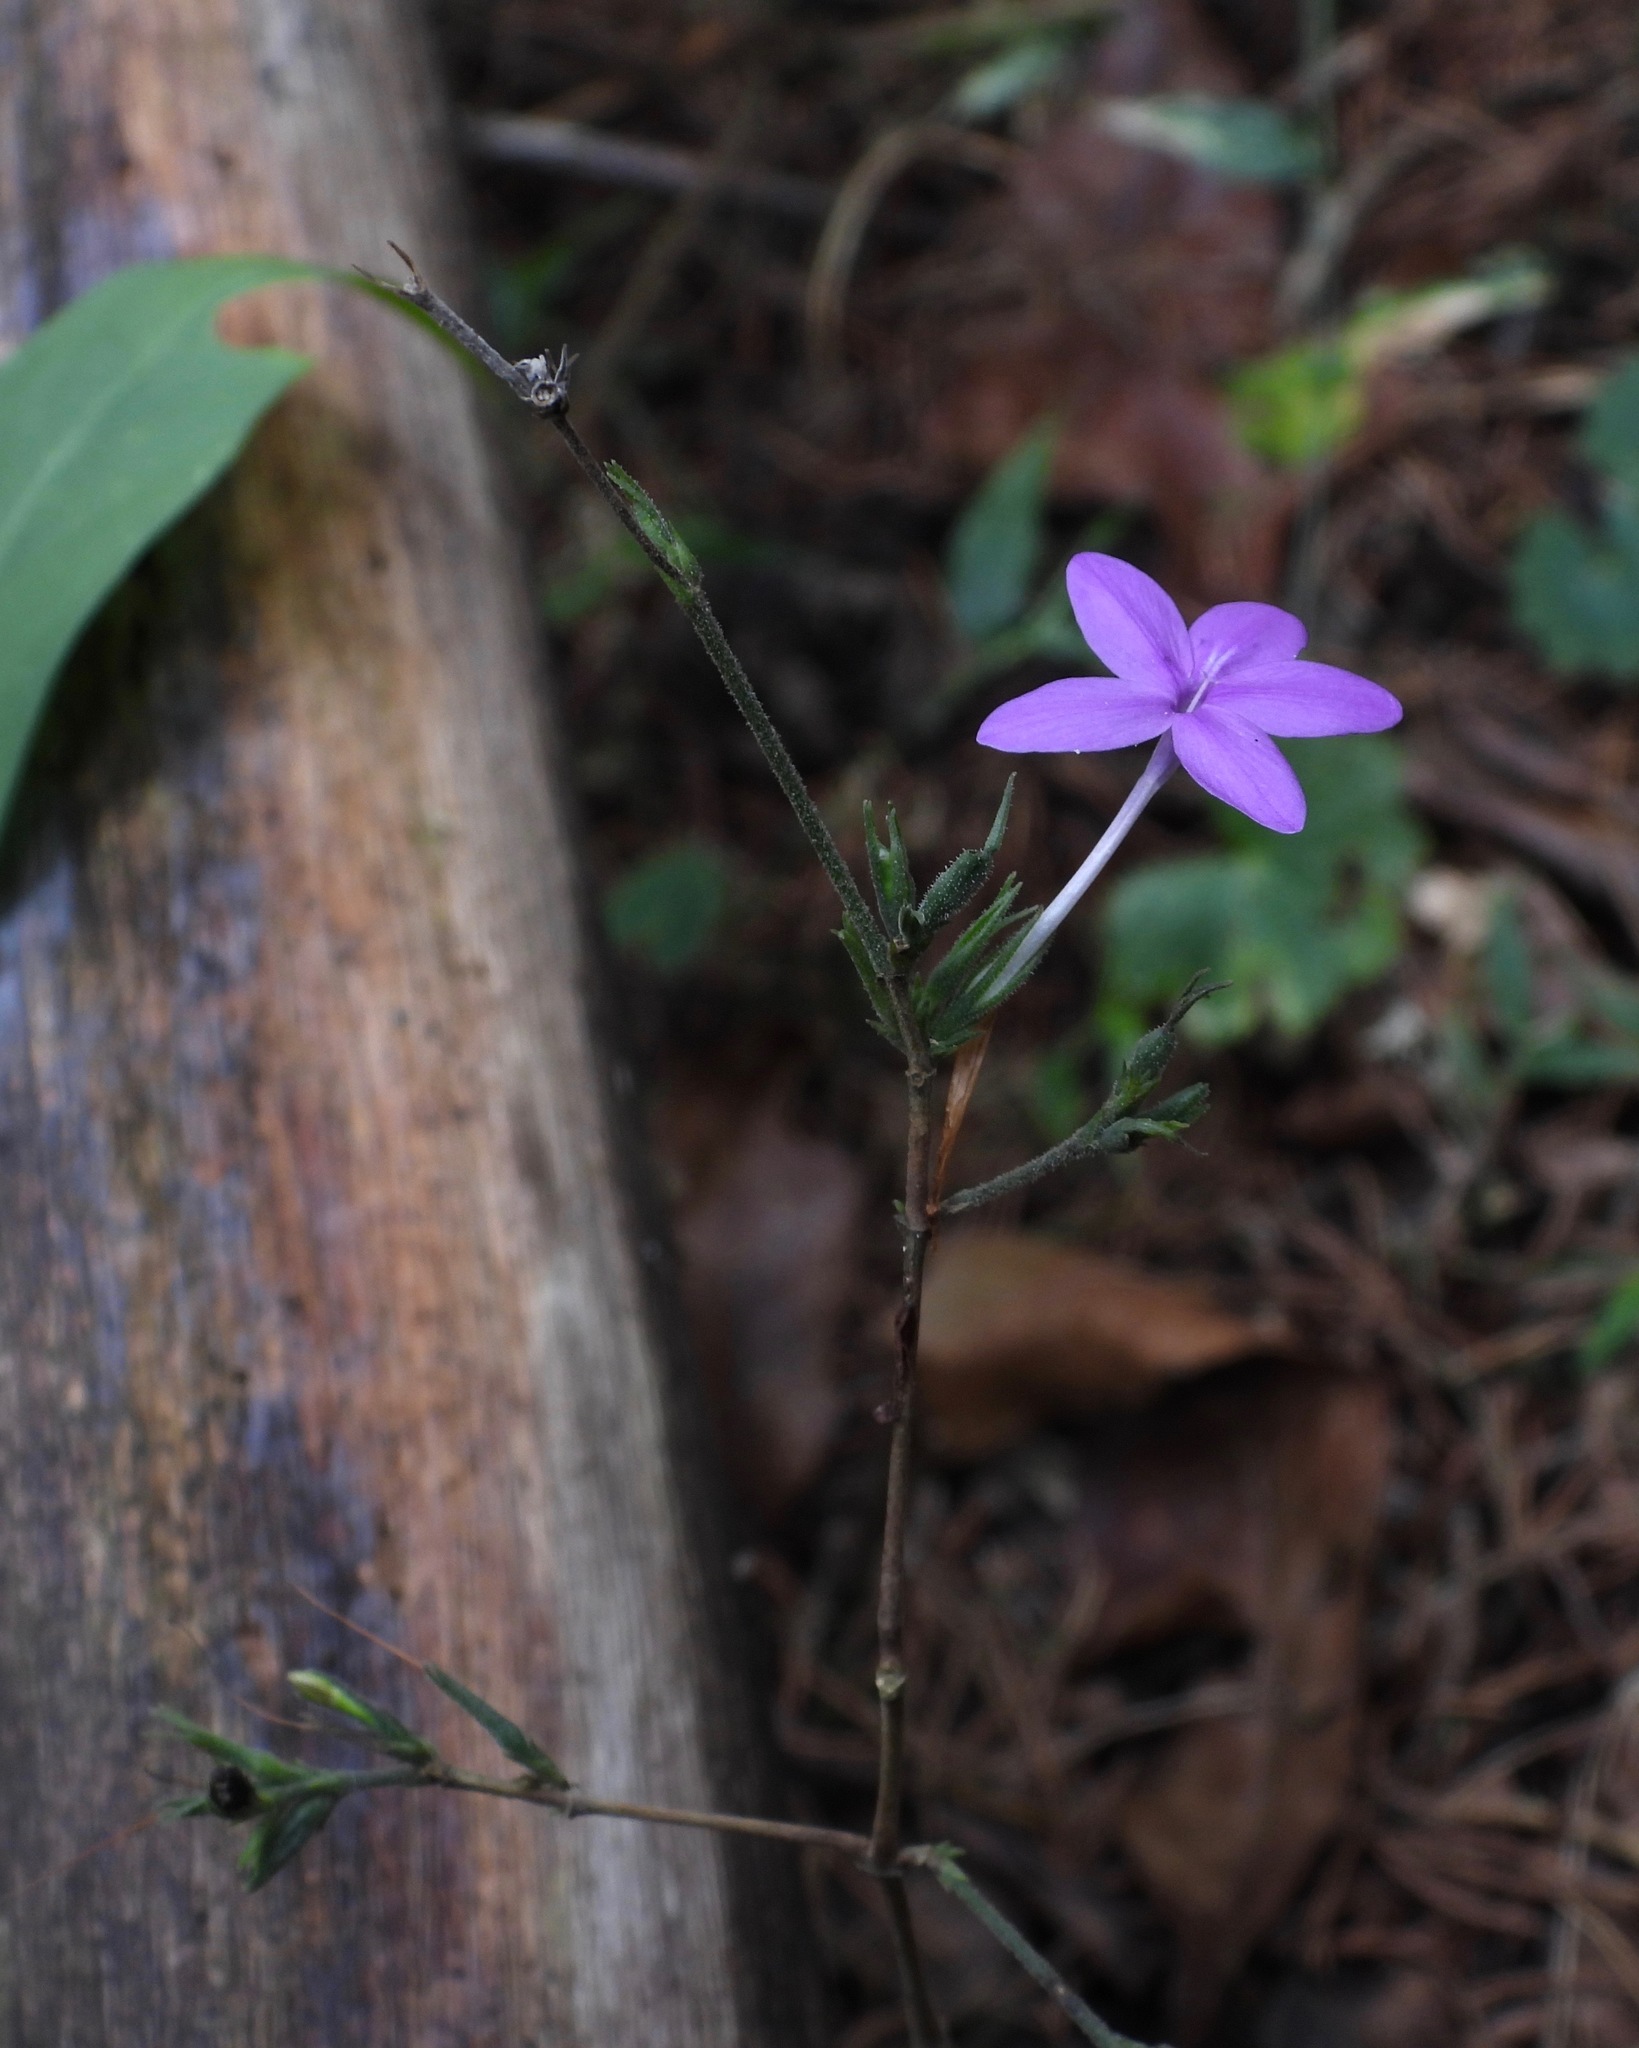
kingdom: Plantae
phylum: Tracheophyta
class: Magnoliopsida
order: Lamiales
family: Acanthaceae
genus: Pseuderanthemum
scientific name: Pseuderanthemum praecox
